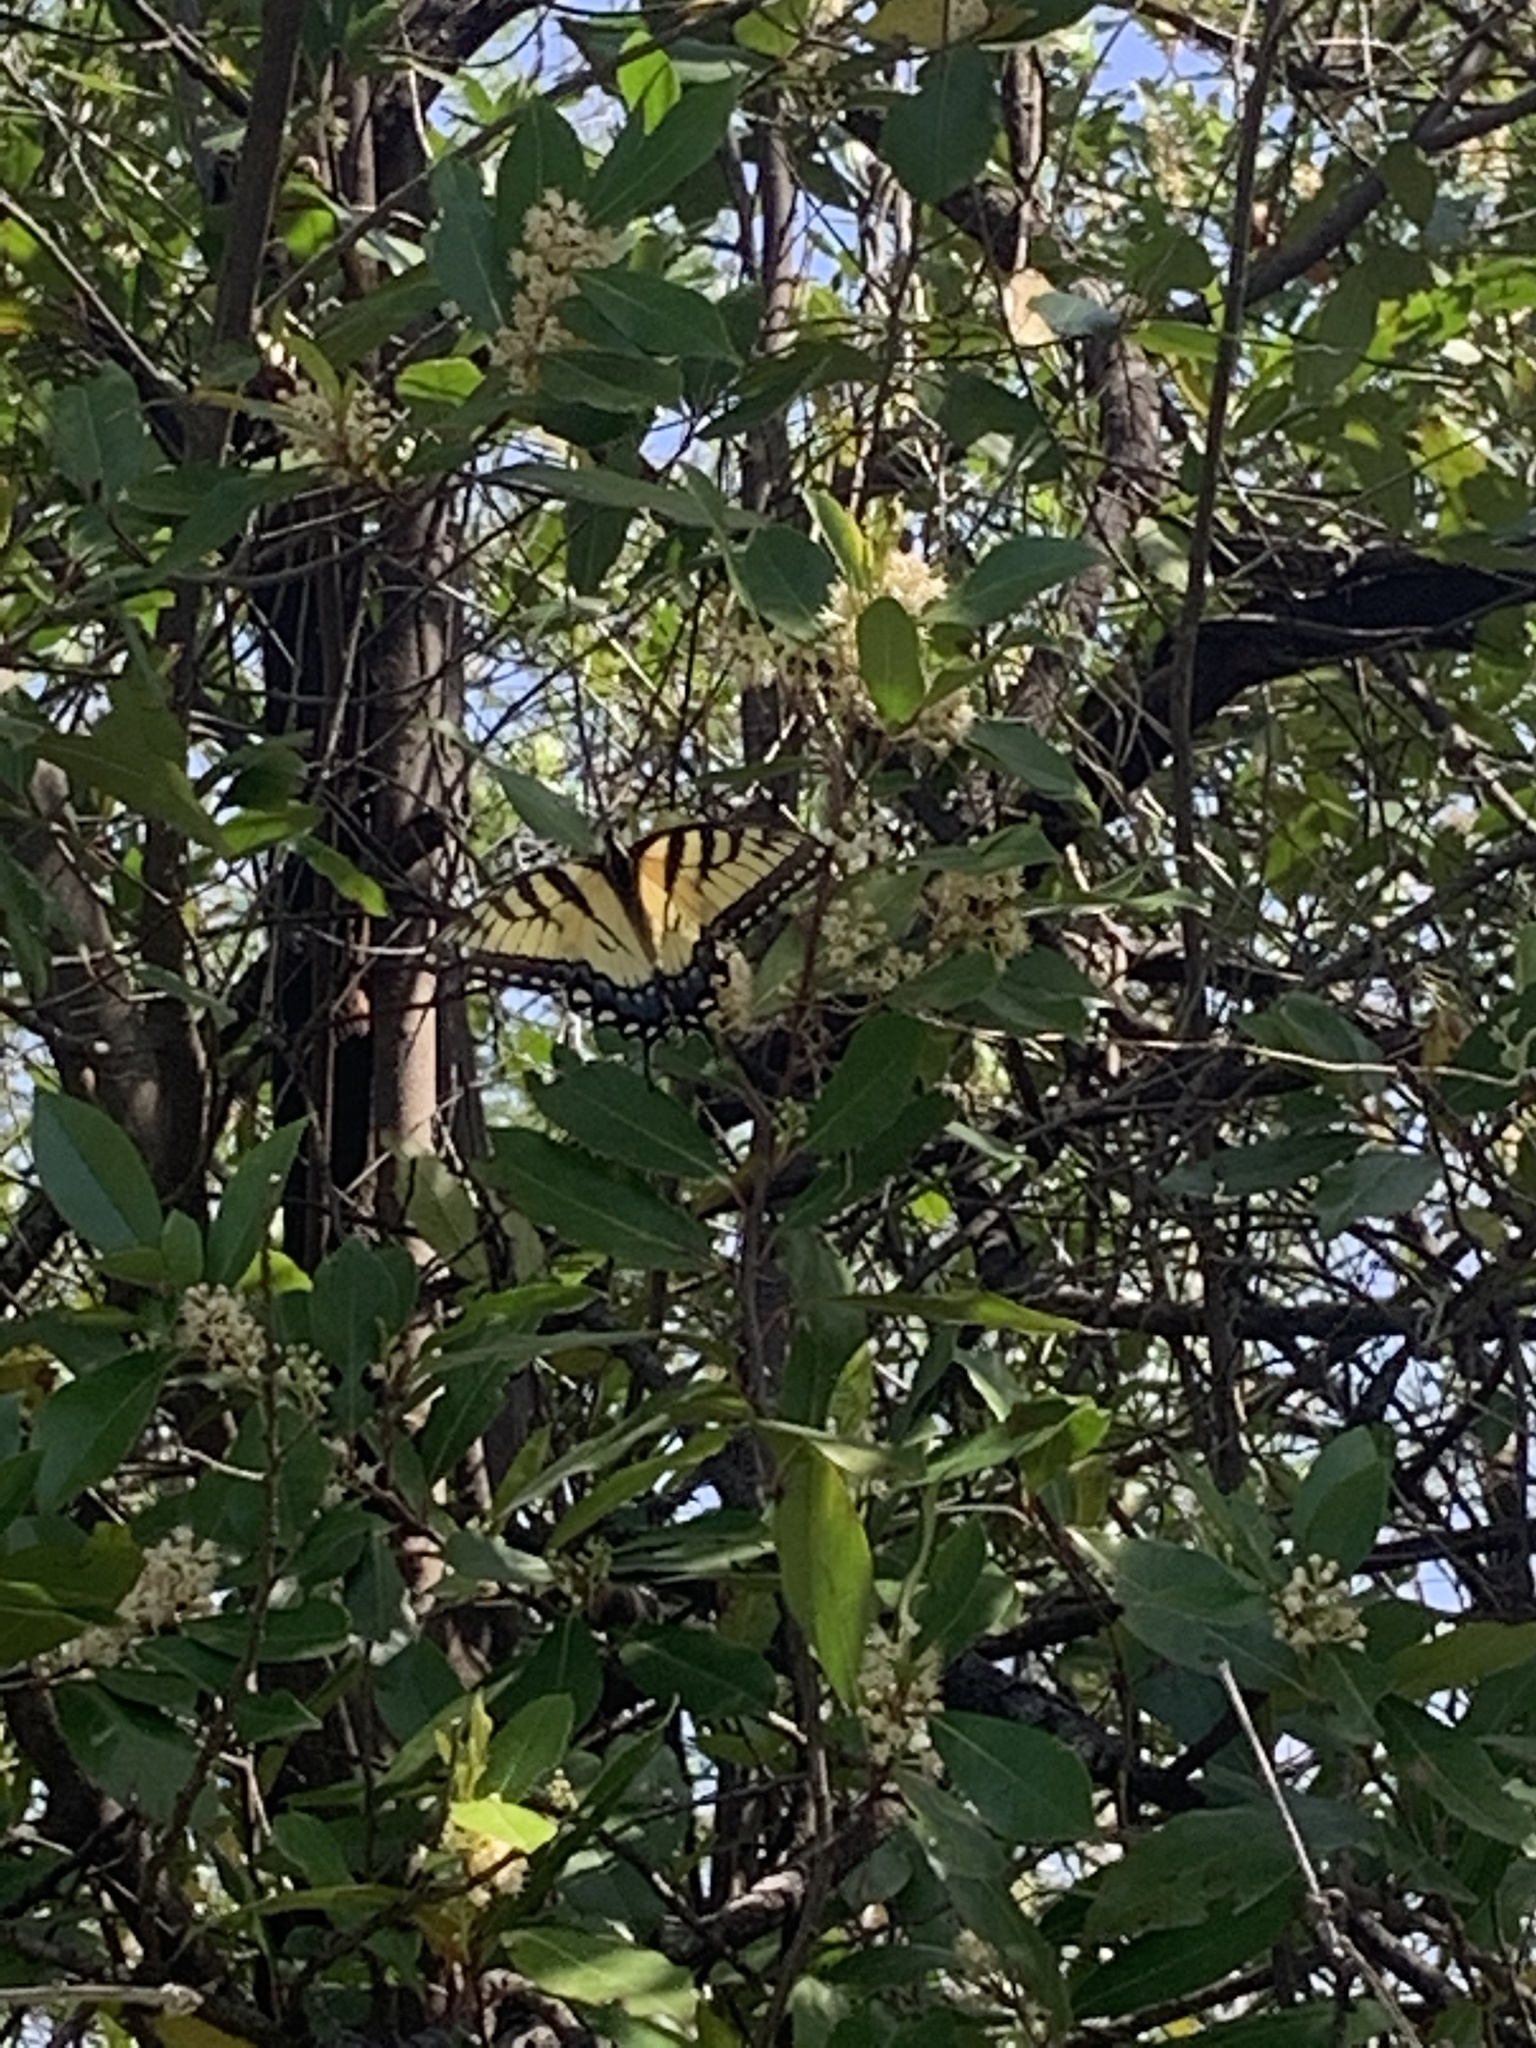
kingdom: Animalia
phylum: Arthropoda
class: Insecta
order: Lepidoptera
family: Papilionidae
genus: Papilio
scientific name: Papilio glaucus
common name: Tiger swallowtail
